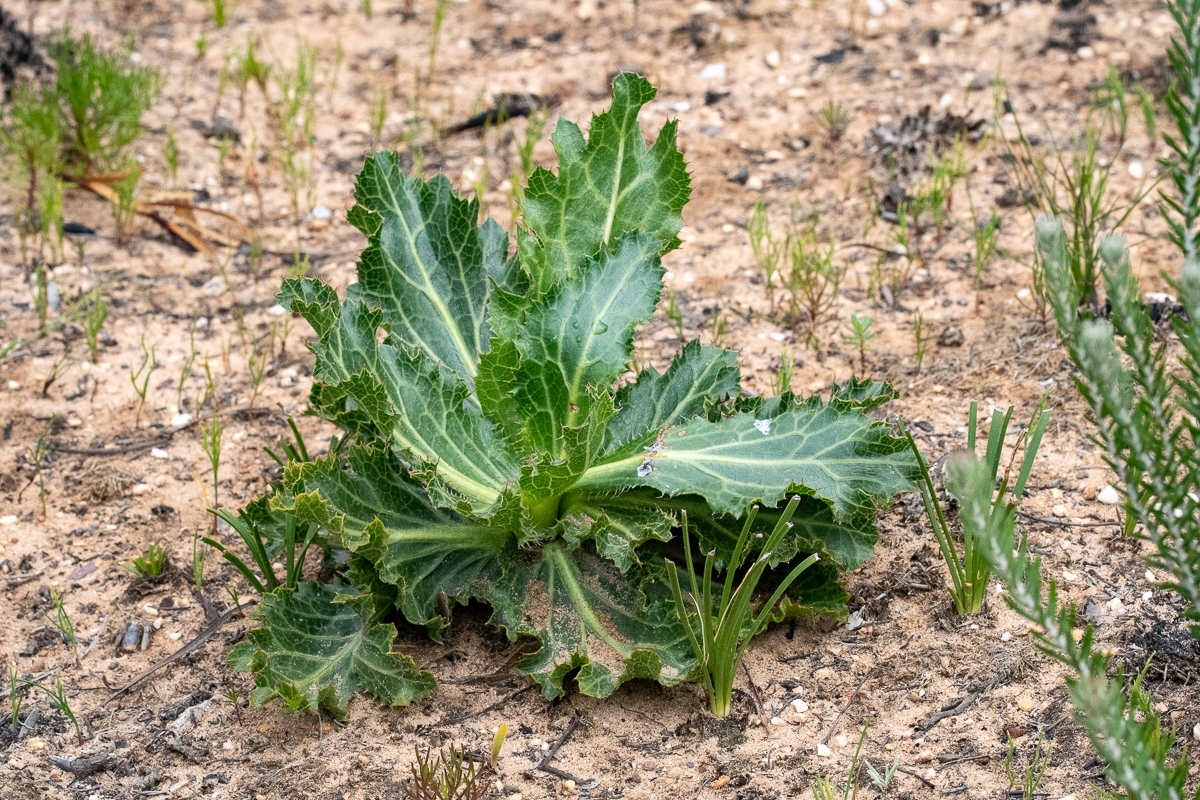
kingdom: Plantae
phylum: Tracheophyta
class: Magnoliopsida
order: Apiales
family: Apiaceae
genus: Lichtensteinia
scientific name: Lichtensteinia lacera
